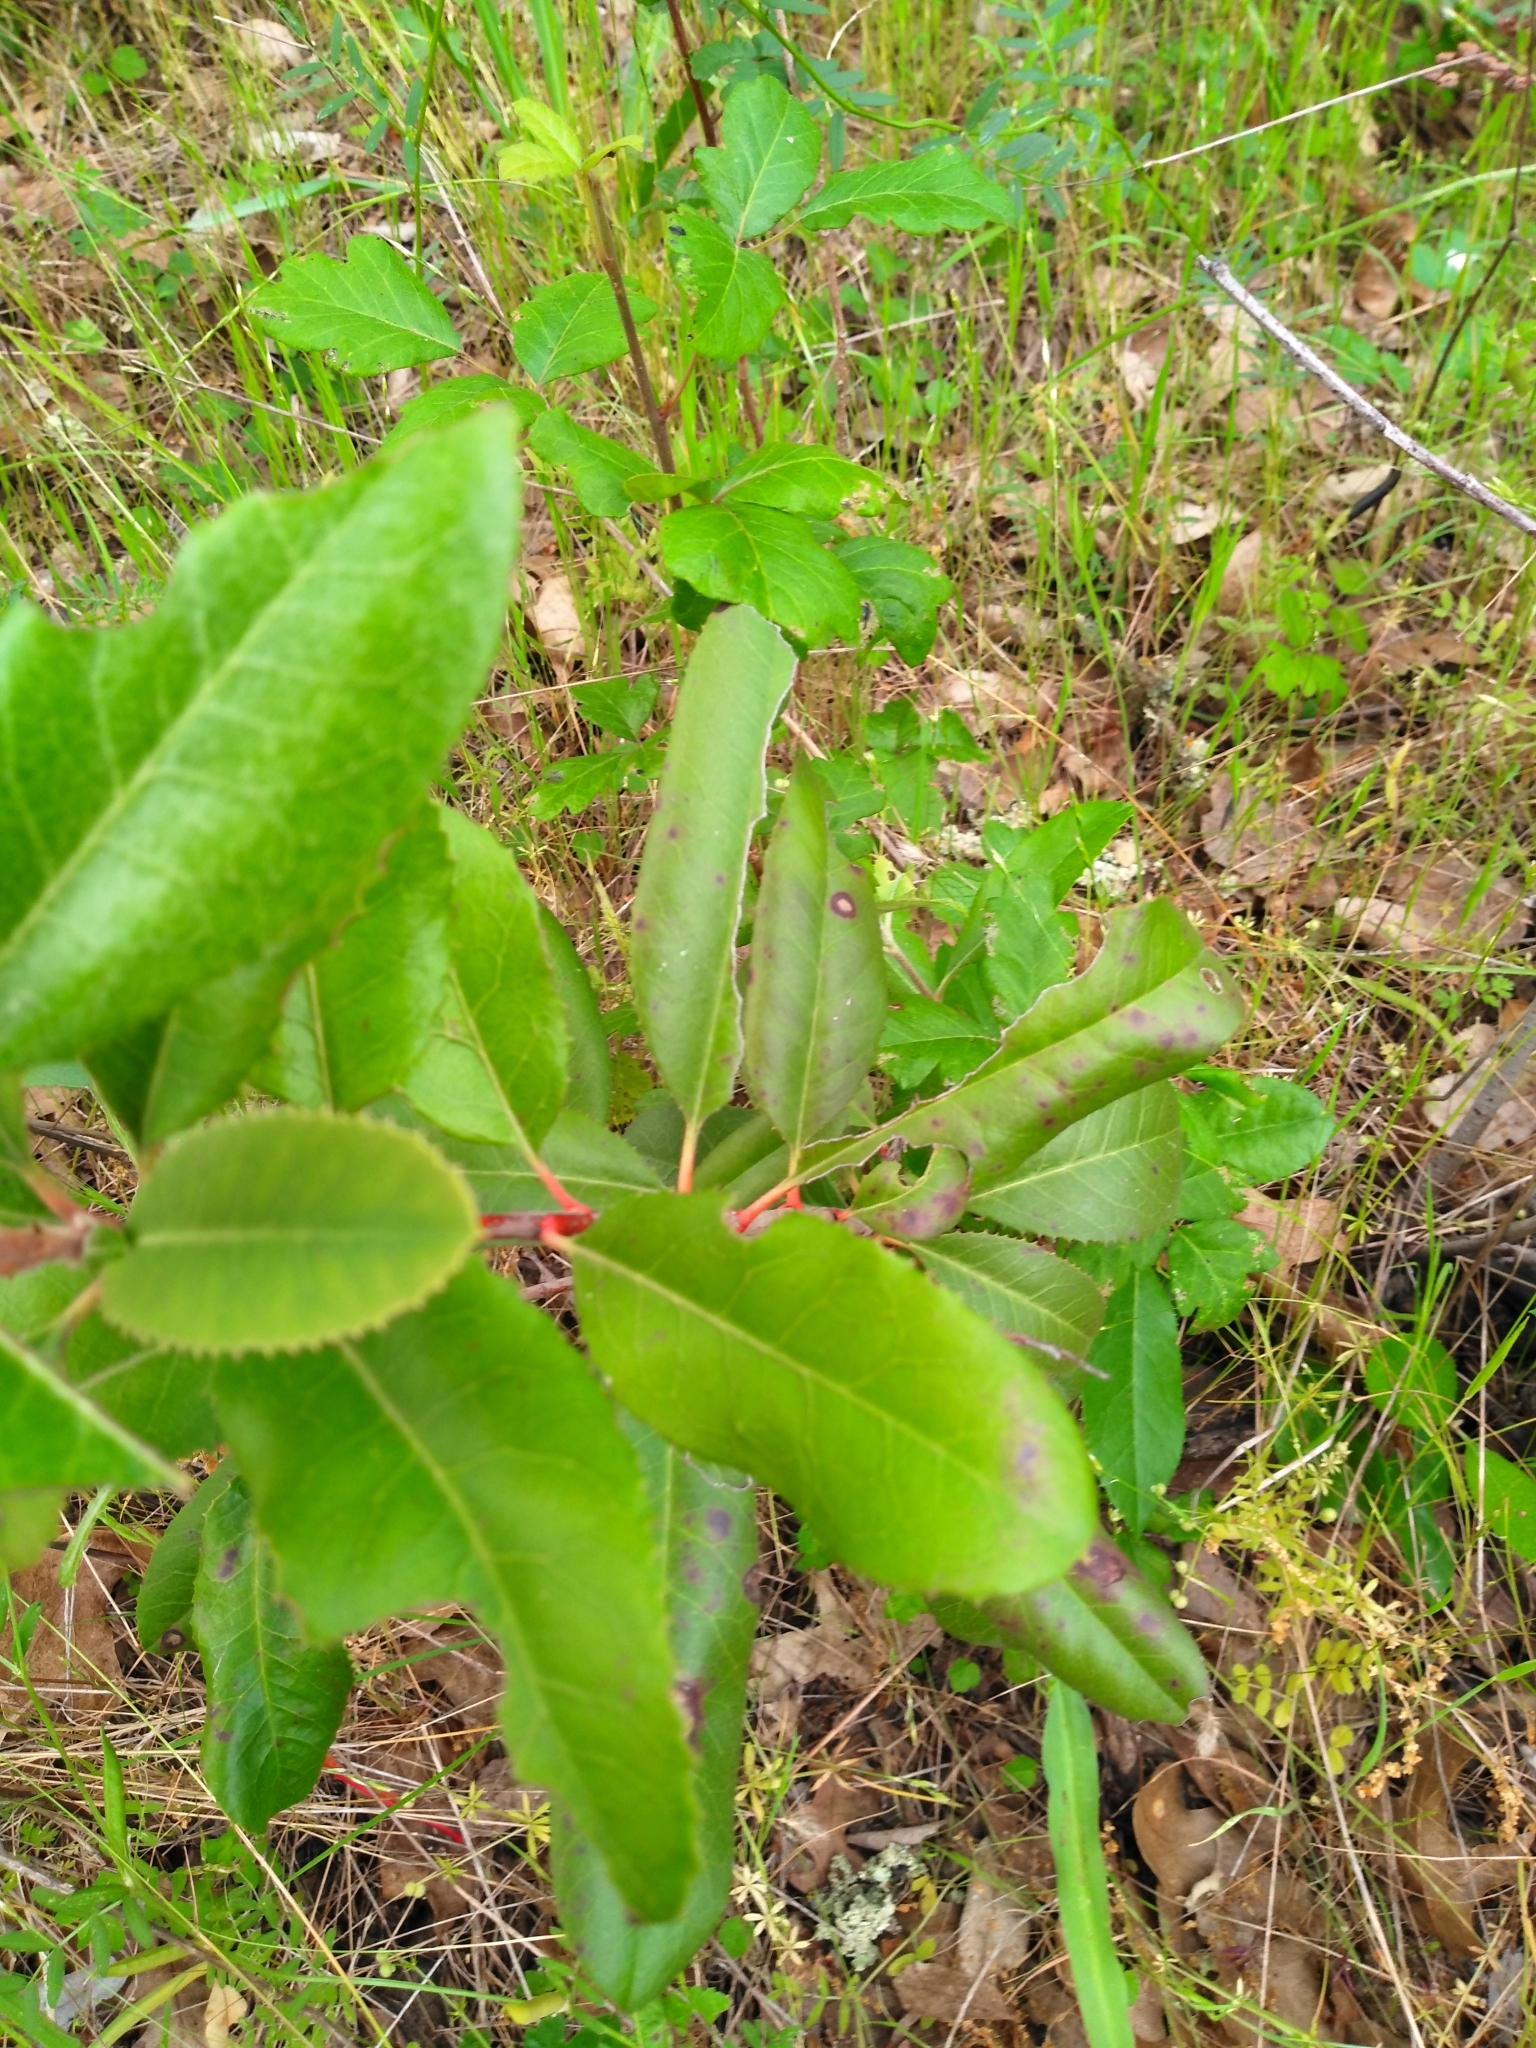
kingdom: Plantae
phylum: Tracheophyta
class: Magnoliopsida
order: Rosales
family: Rosaceae
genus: Heteromeles
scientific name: Heteromeles arbutifolia
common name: California-holly
